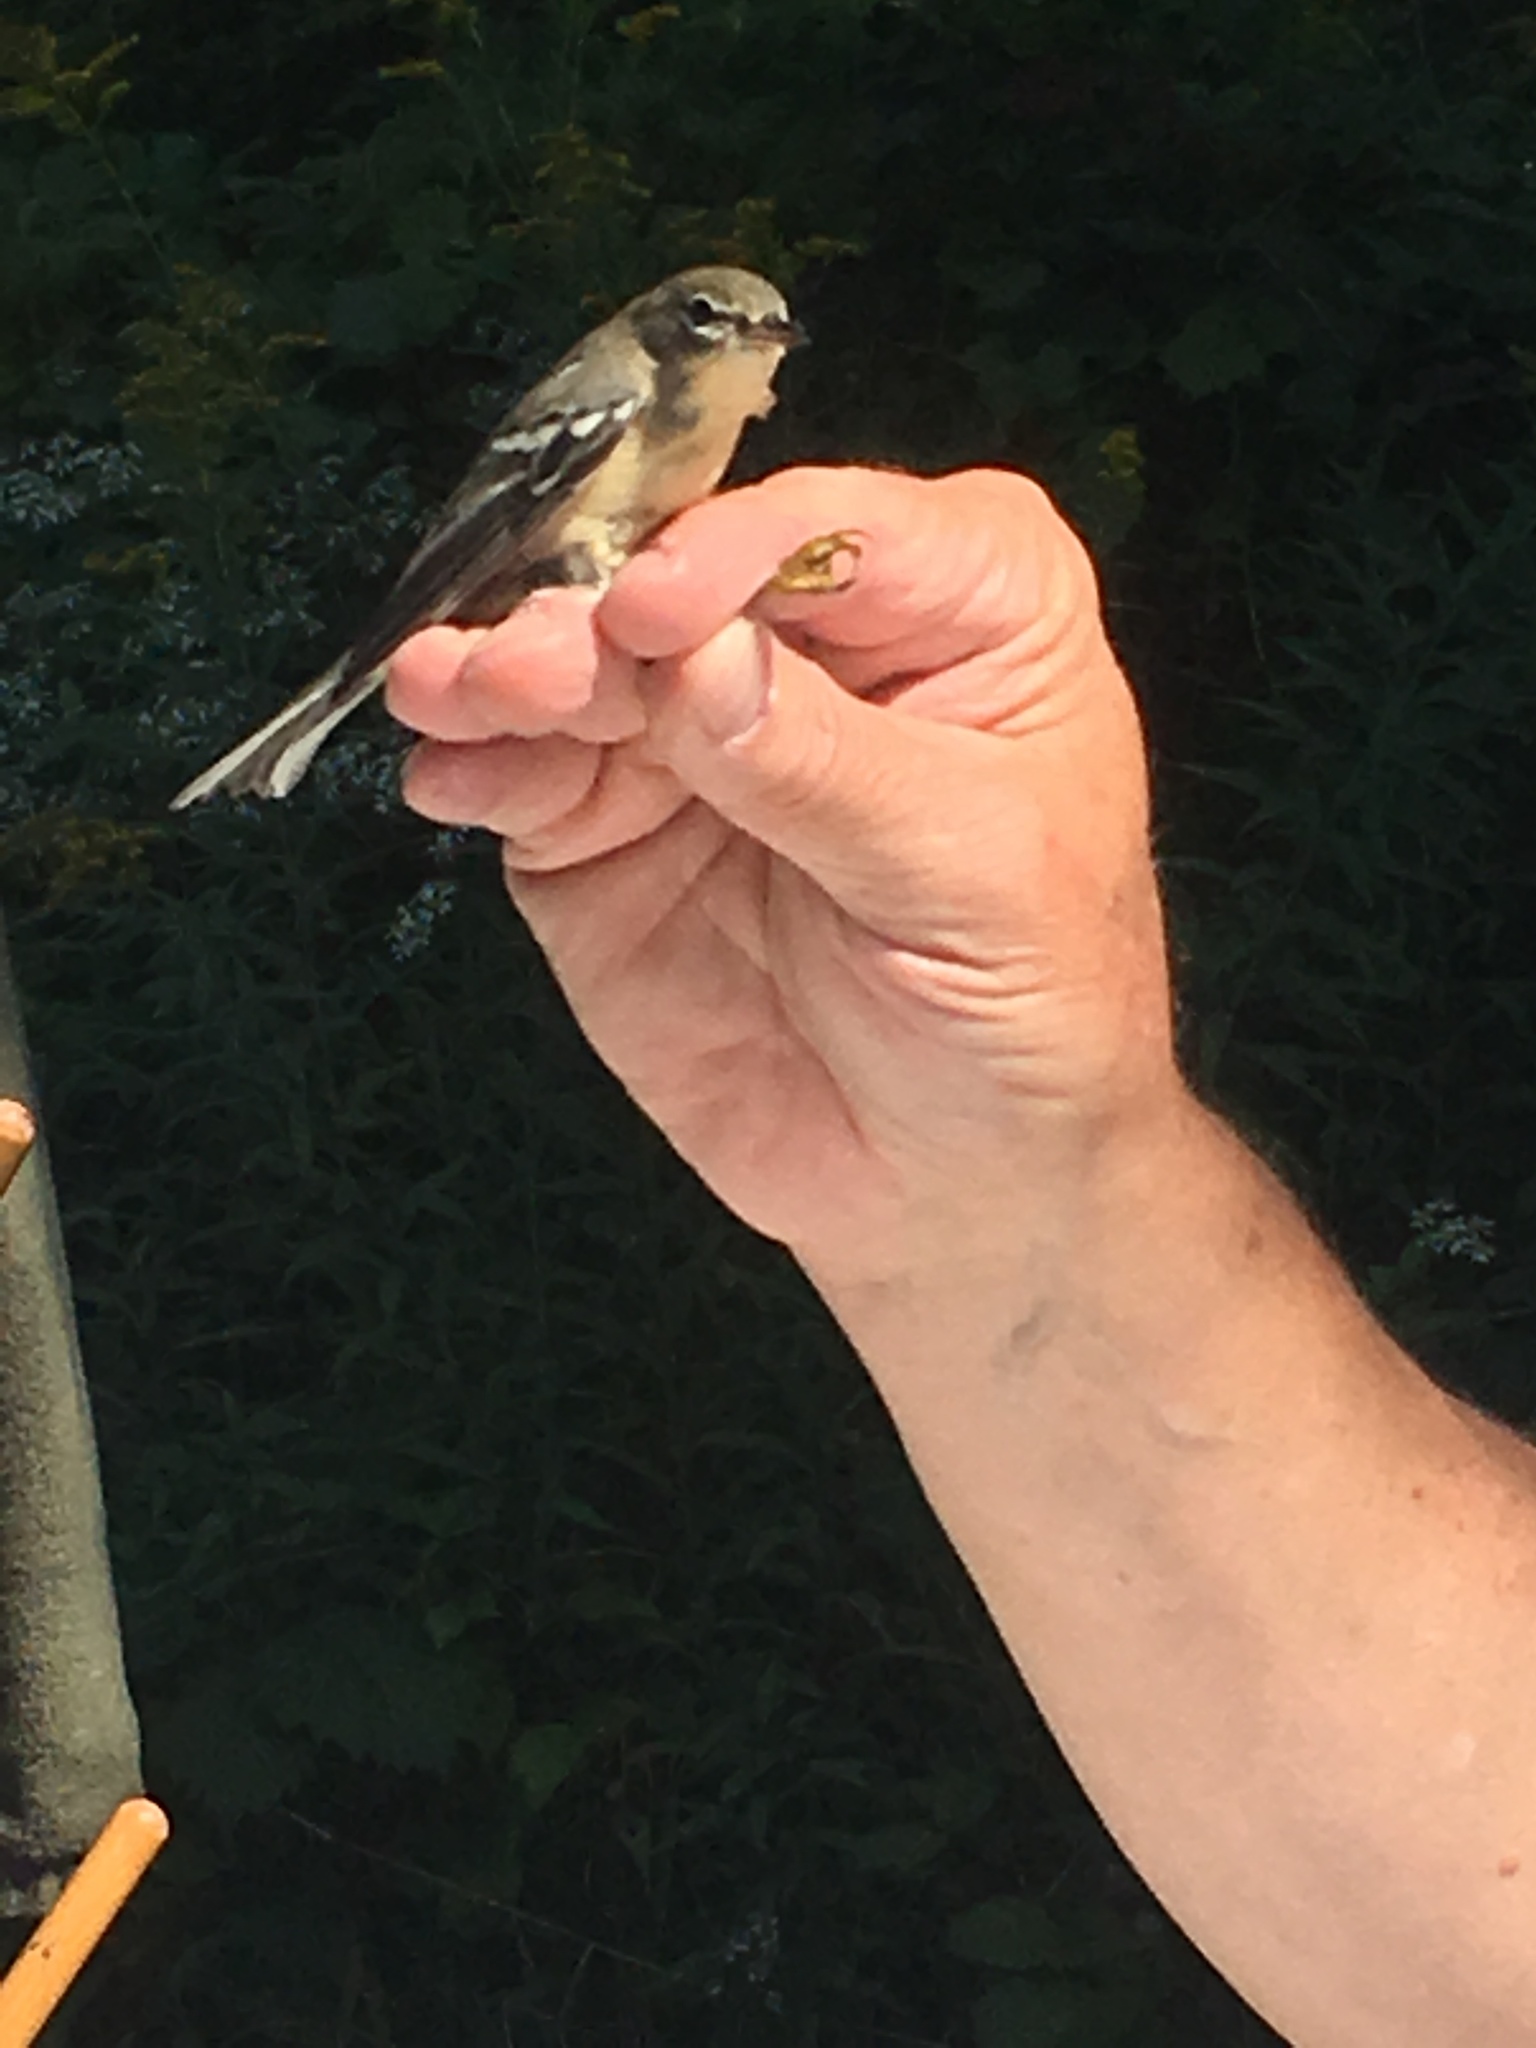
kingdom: Animalia
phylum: Chordata
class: Aves
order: Passeriformes
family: Parulidae
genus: Setophaga
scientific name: Setophaga striata
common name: Blackpoll warbler
